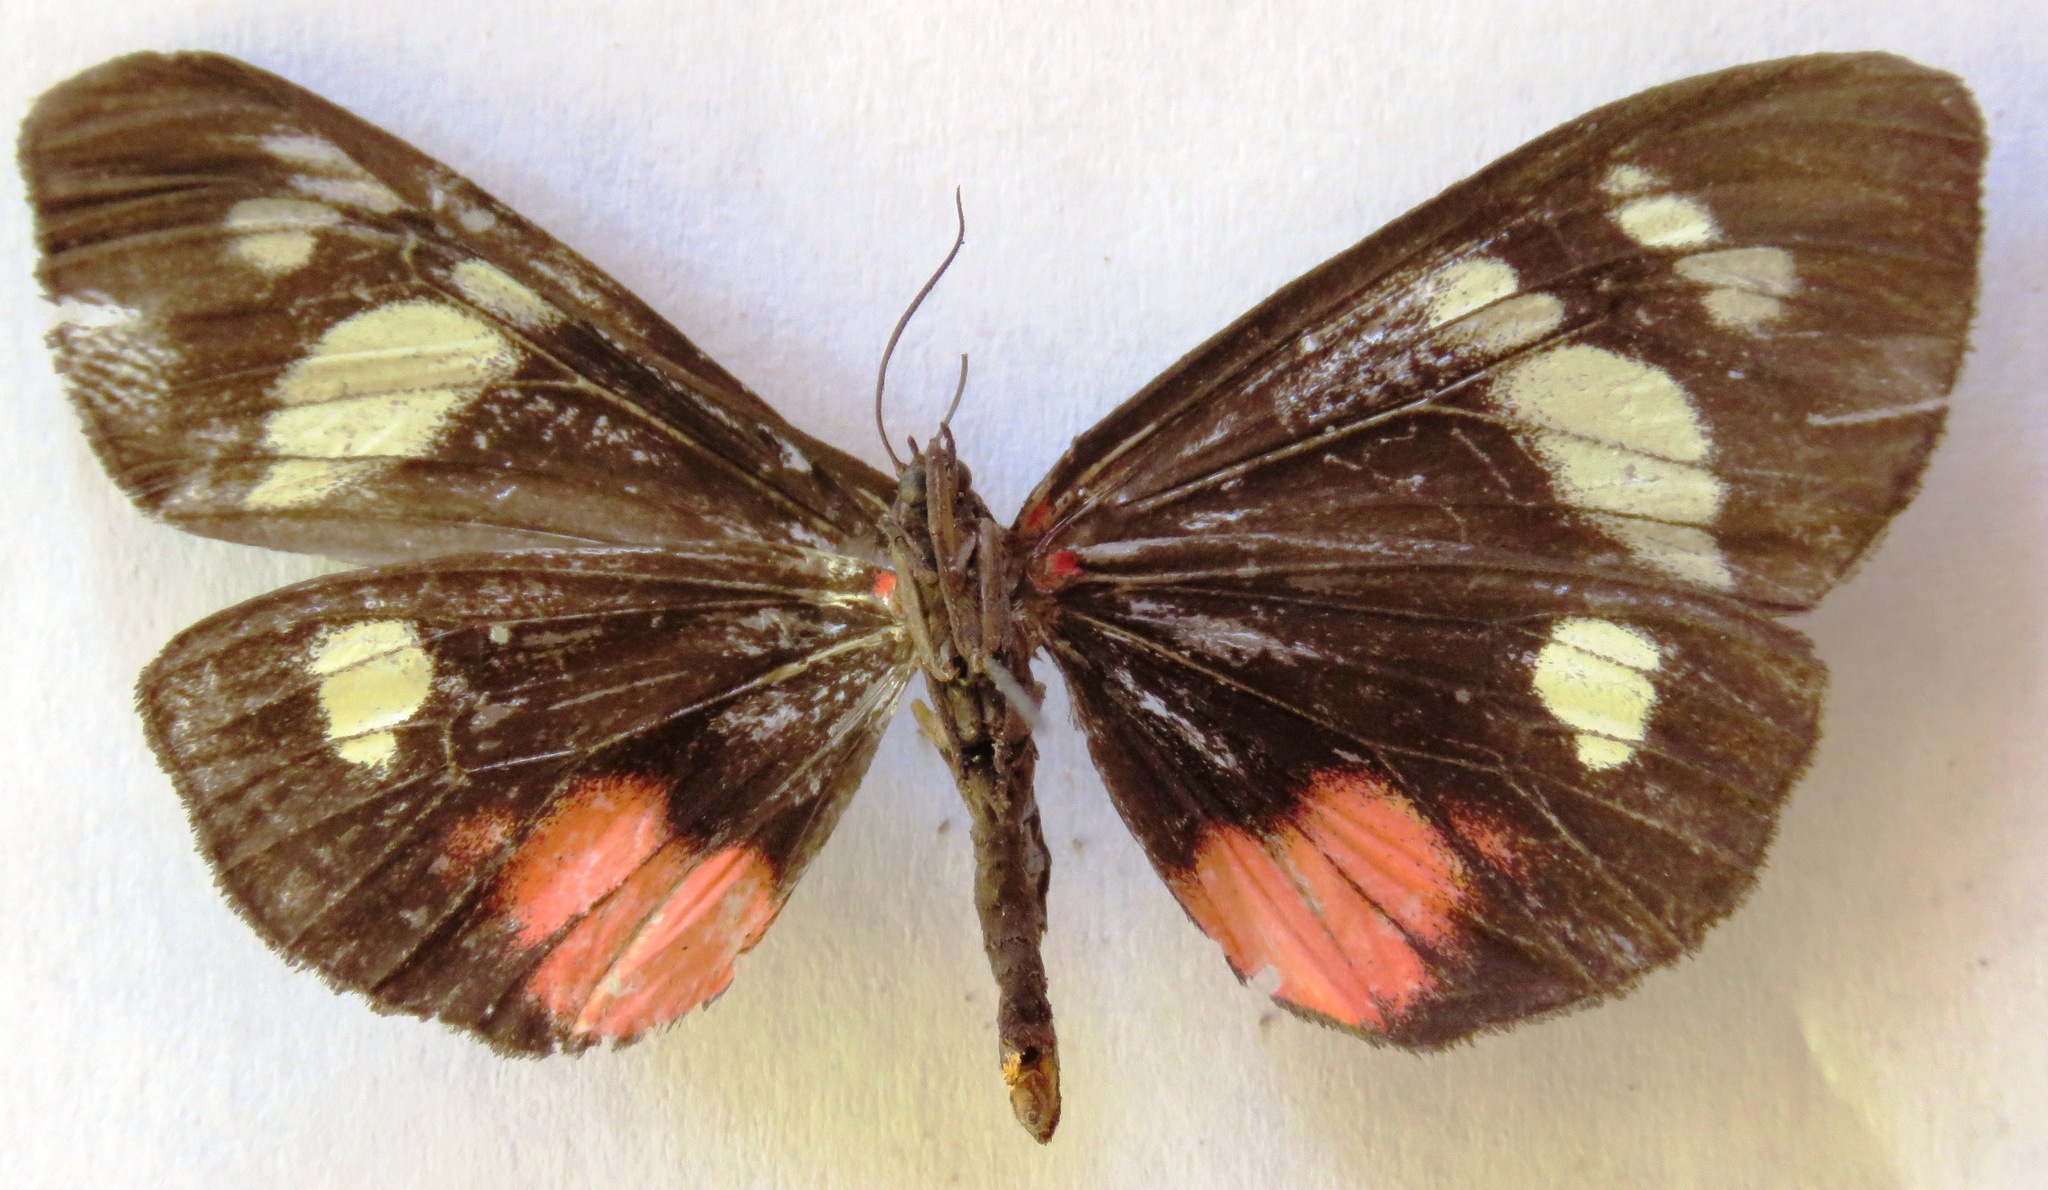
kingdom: Animalia
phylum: Arthropoda
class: Insecta
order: Lepidoptera
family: Erebidae
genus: Dysschema
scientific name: Dysschema jansonis
